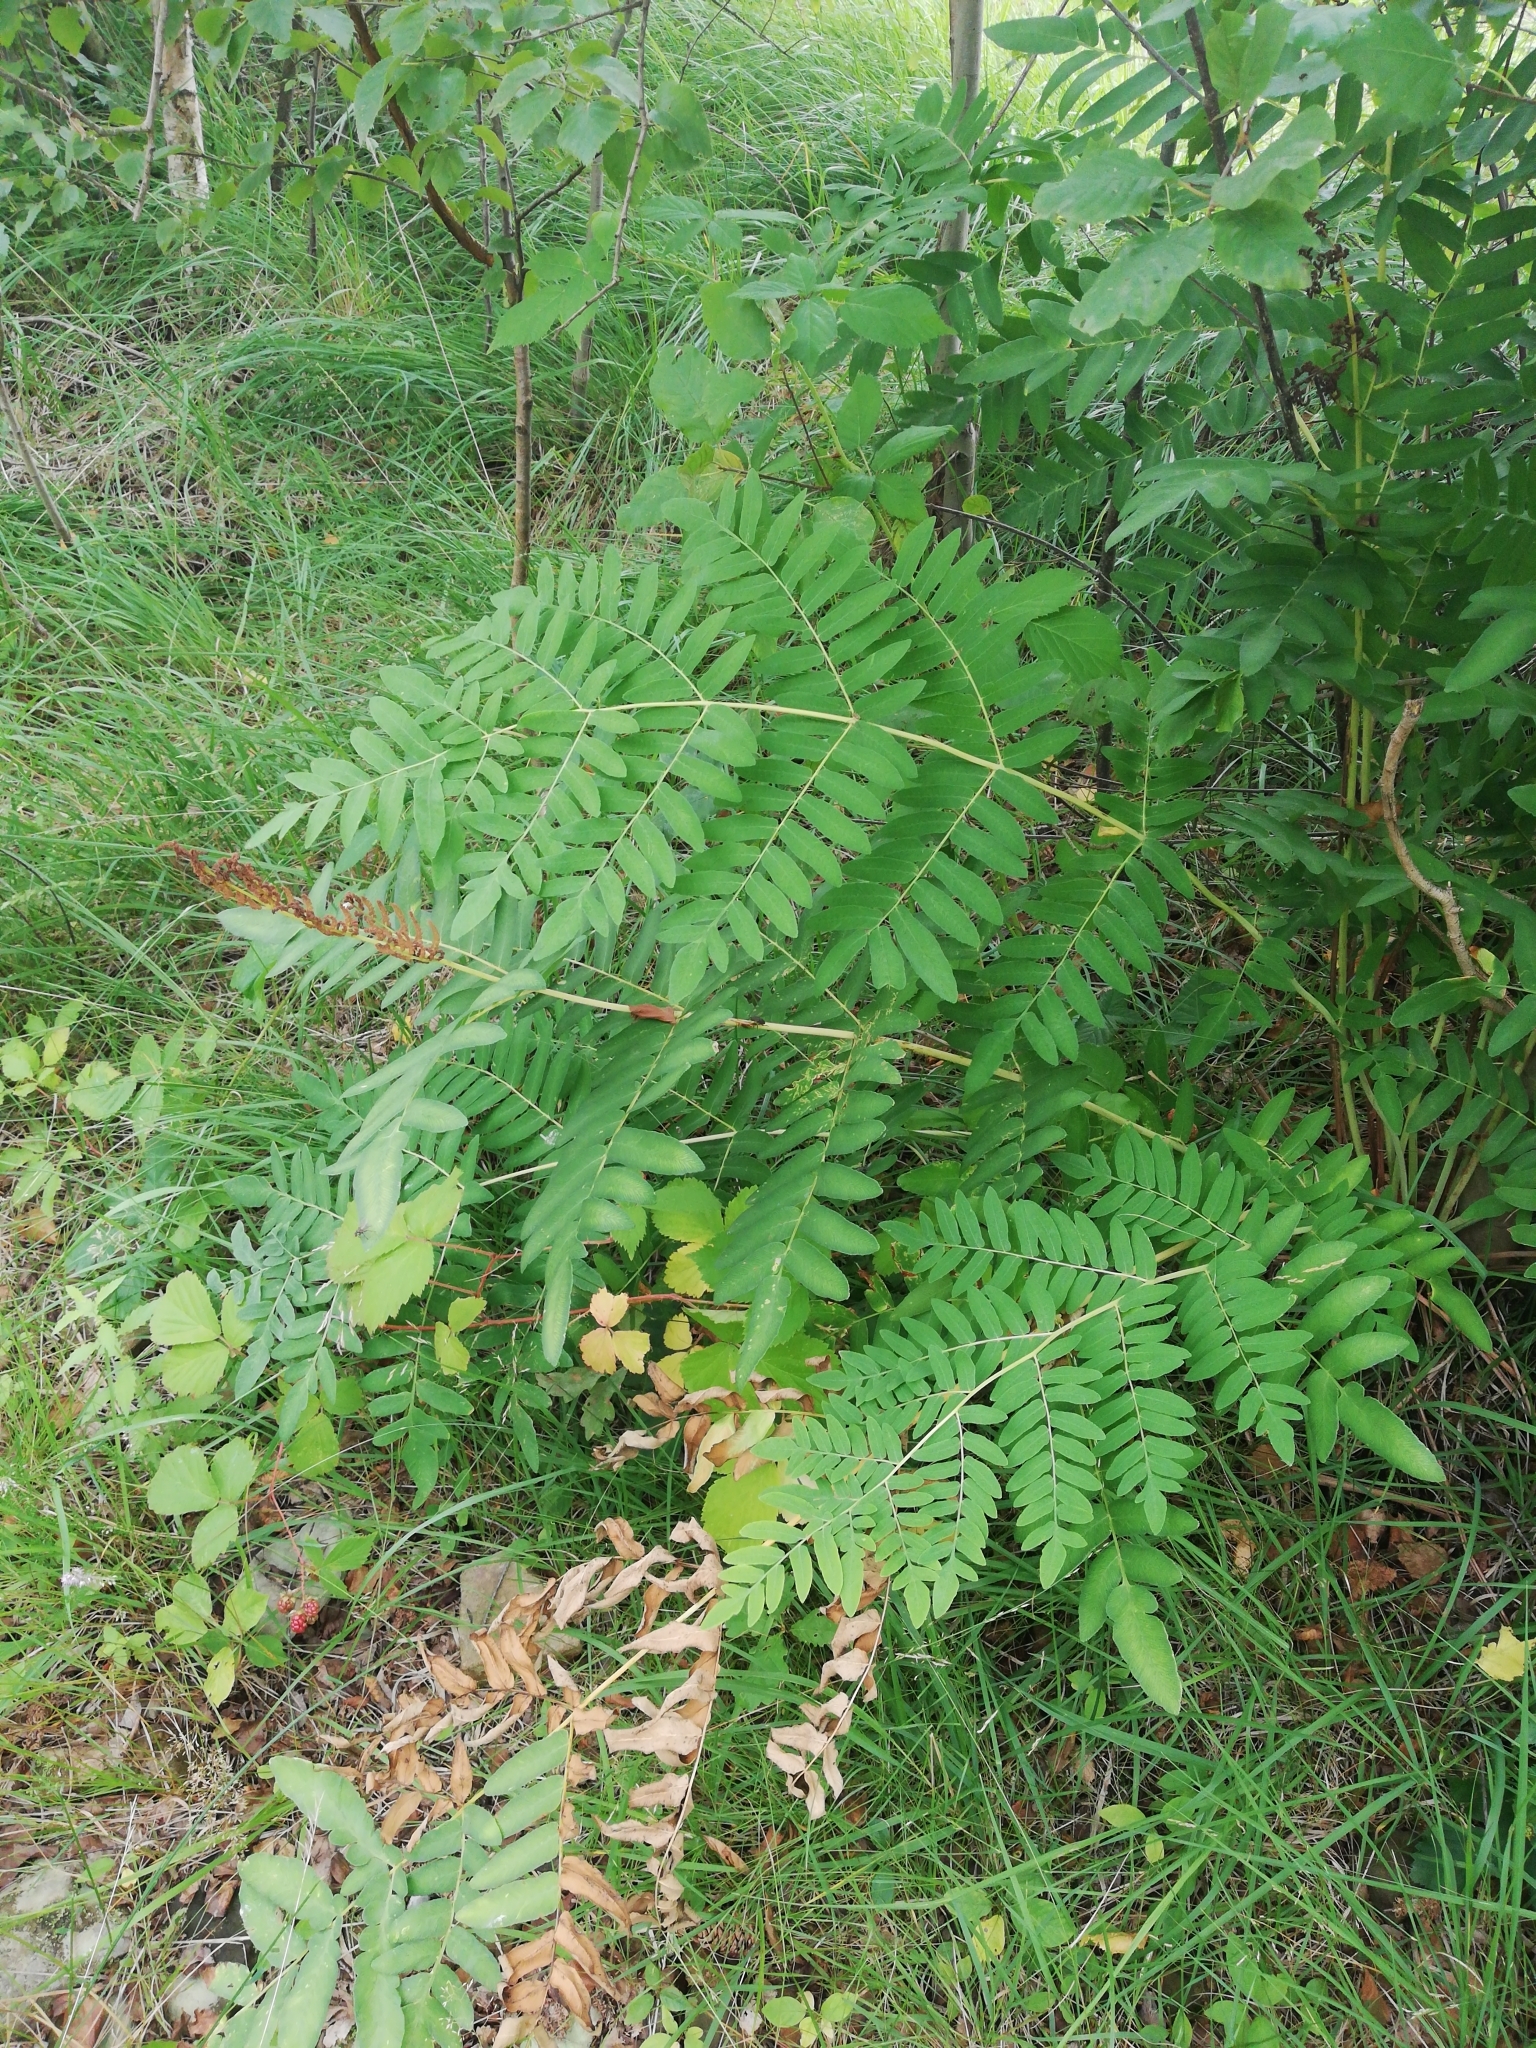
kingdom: Plantae
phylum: Tracheophyta
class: Polypodiopsida
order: Osmundales
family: Osmundaceae
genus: Osmunda
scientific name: Osmunda regalis
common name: Royal fern
